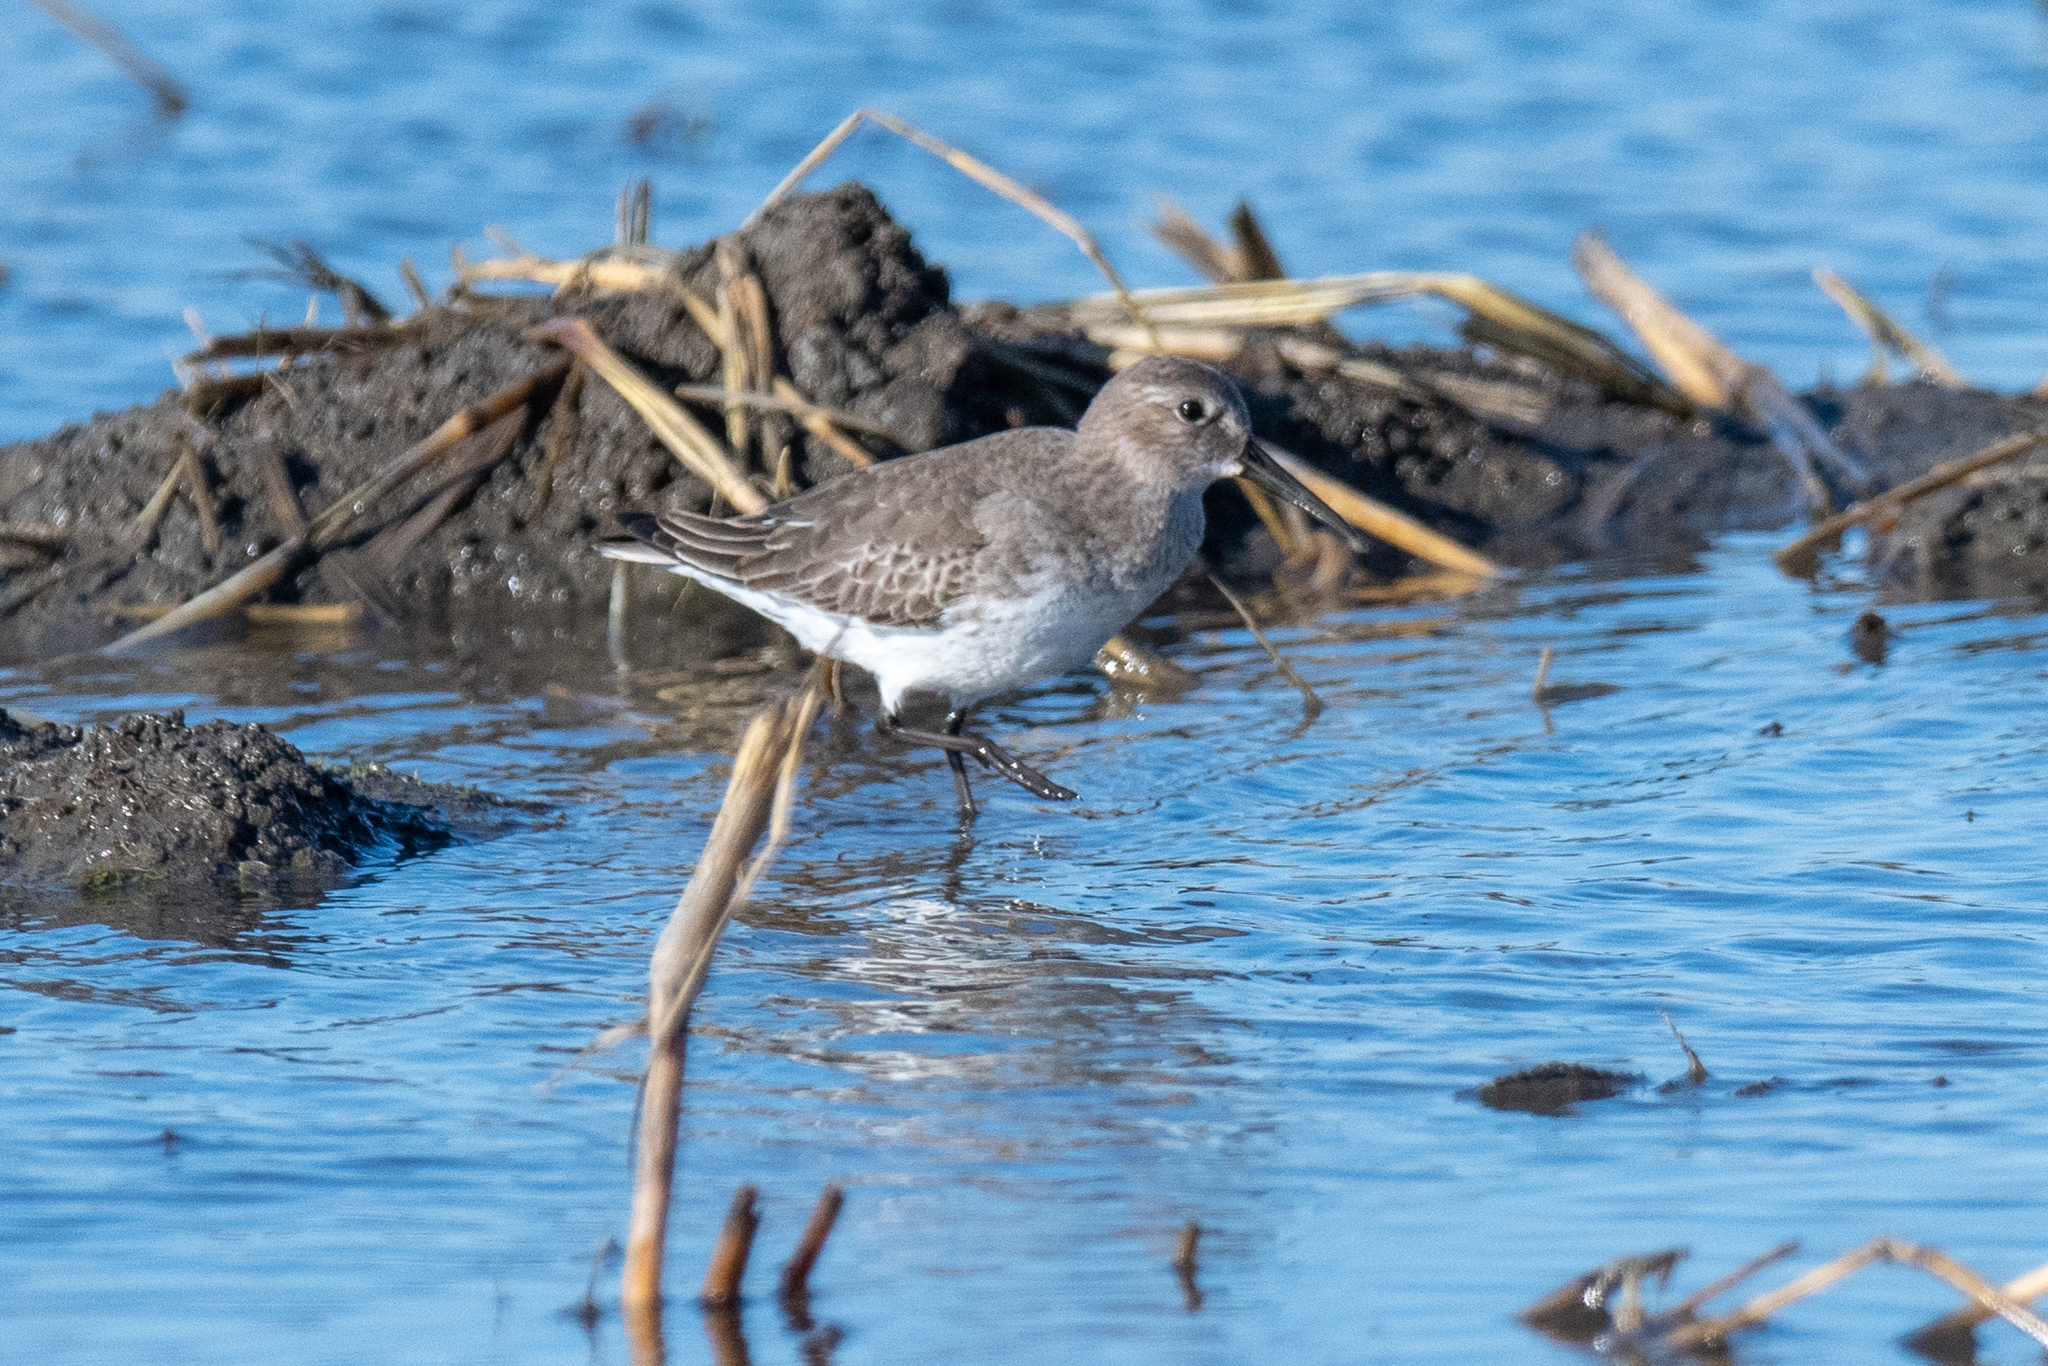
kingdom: Animalia
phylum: Chordata
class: Aves
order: Charadriiformes
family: Scolopacidae
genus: Calidris
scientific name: Calidris alpina
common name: Dunlin
